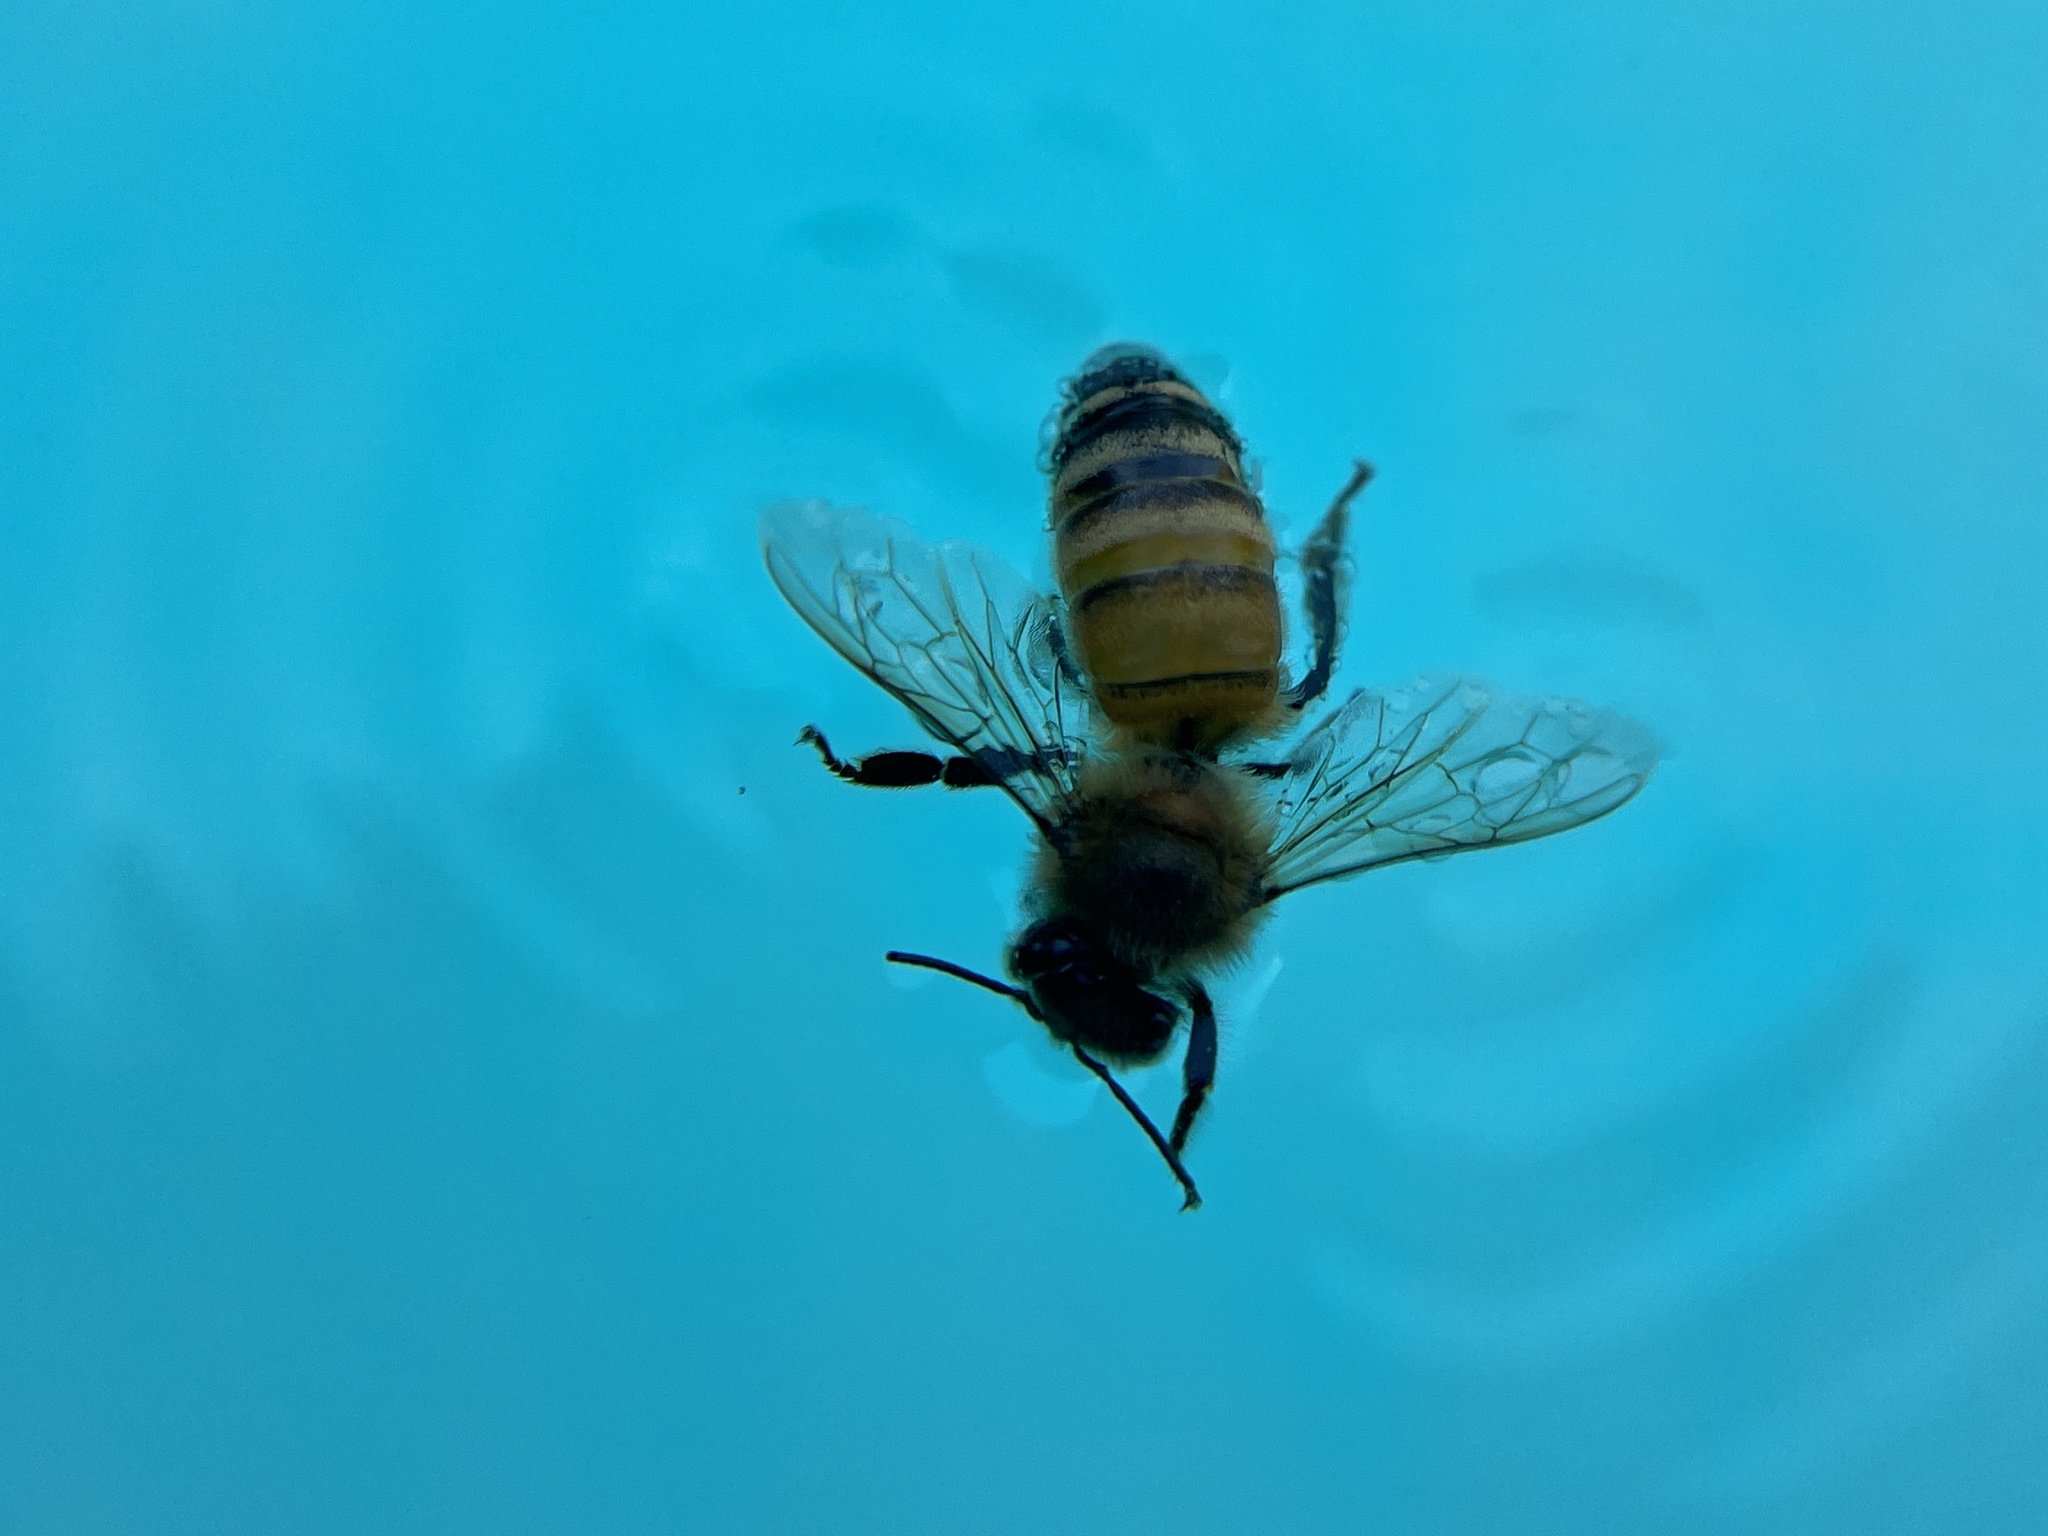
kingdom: Animalia
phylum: Arthropoda
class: Insecta
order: Hymenoptera
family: Apidae
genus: Apis
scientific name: Apis mellifera
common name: Honey bee
